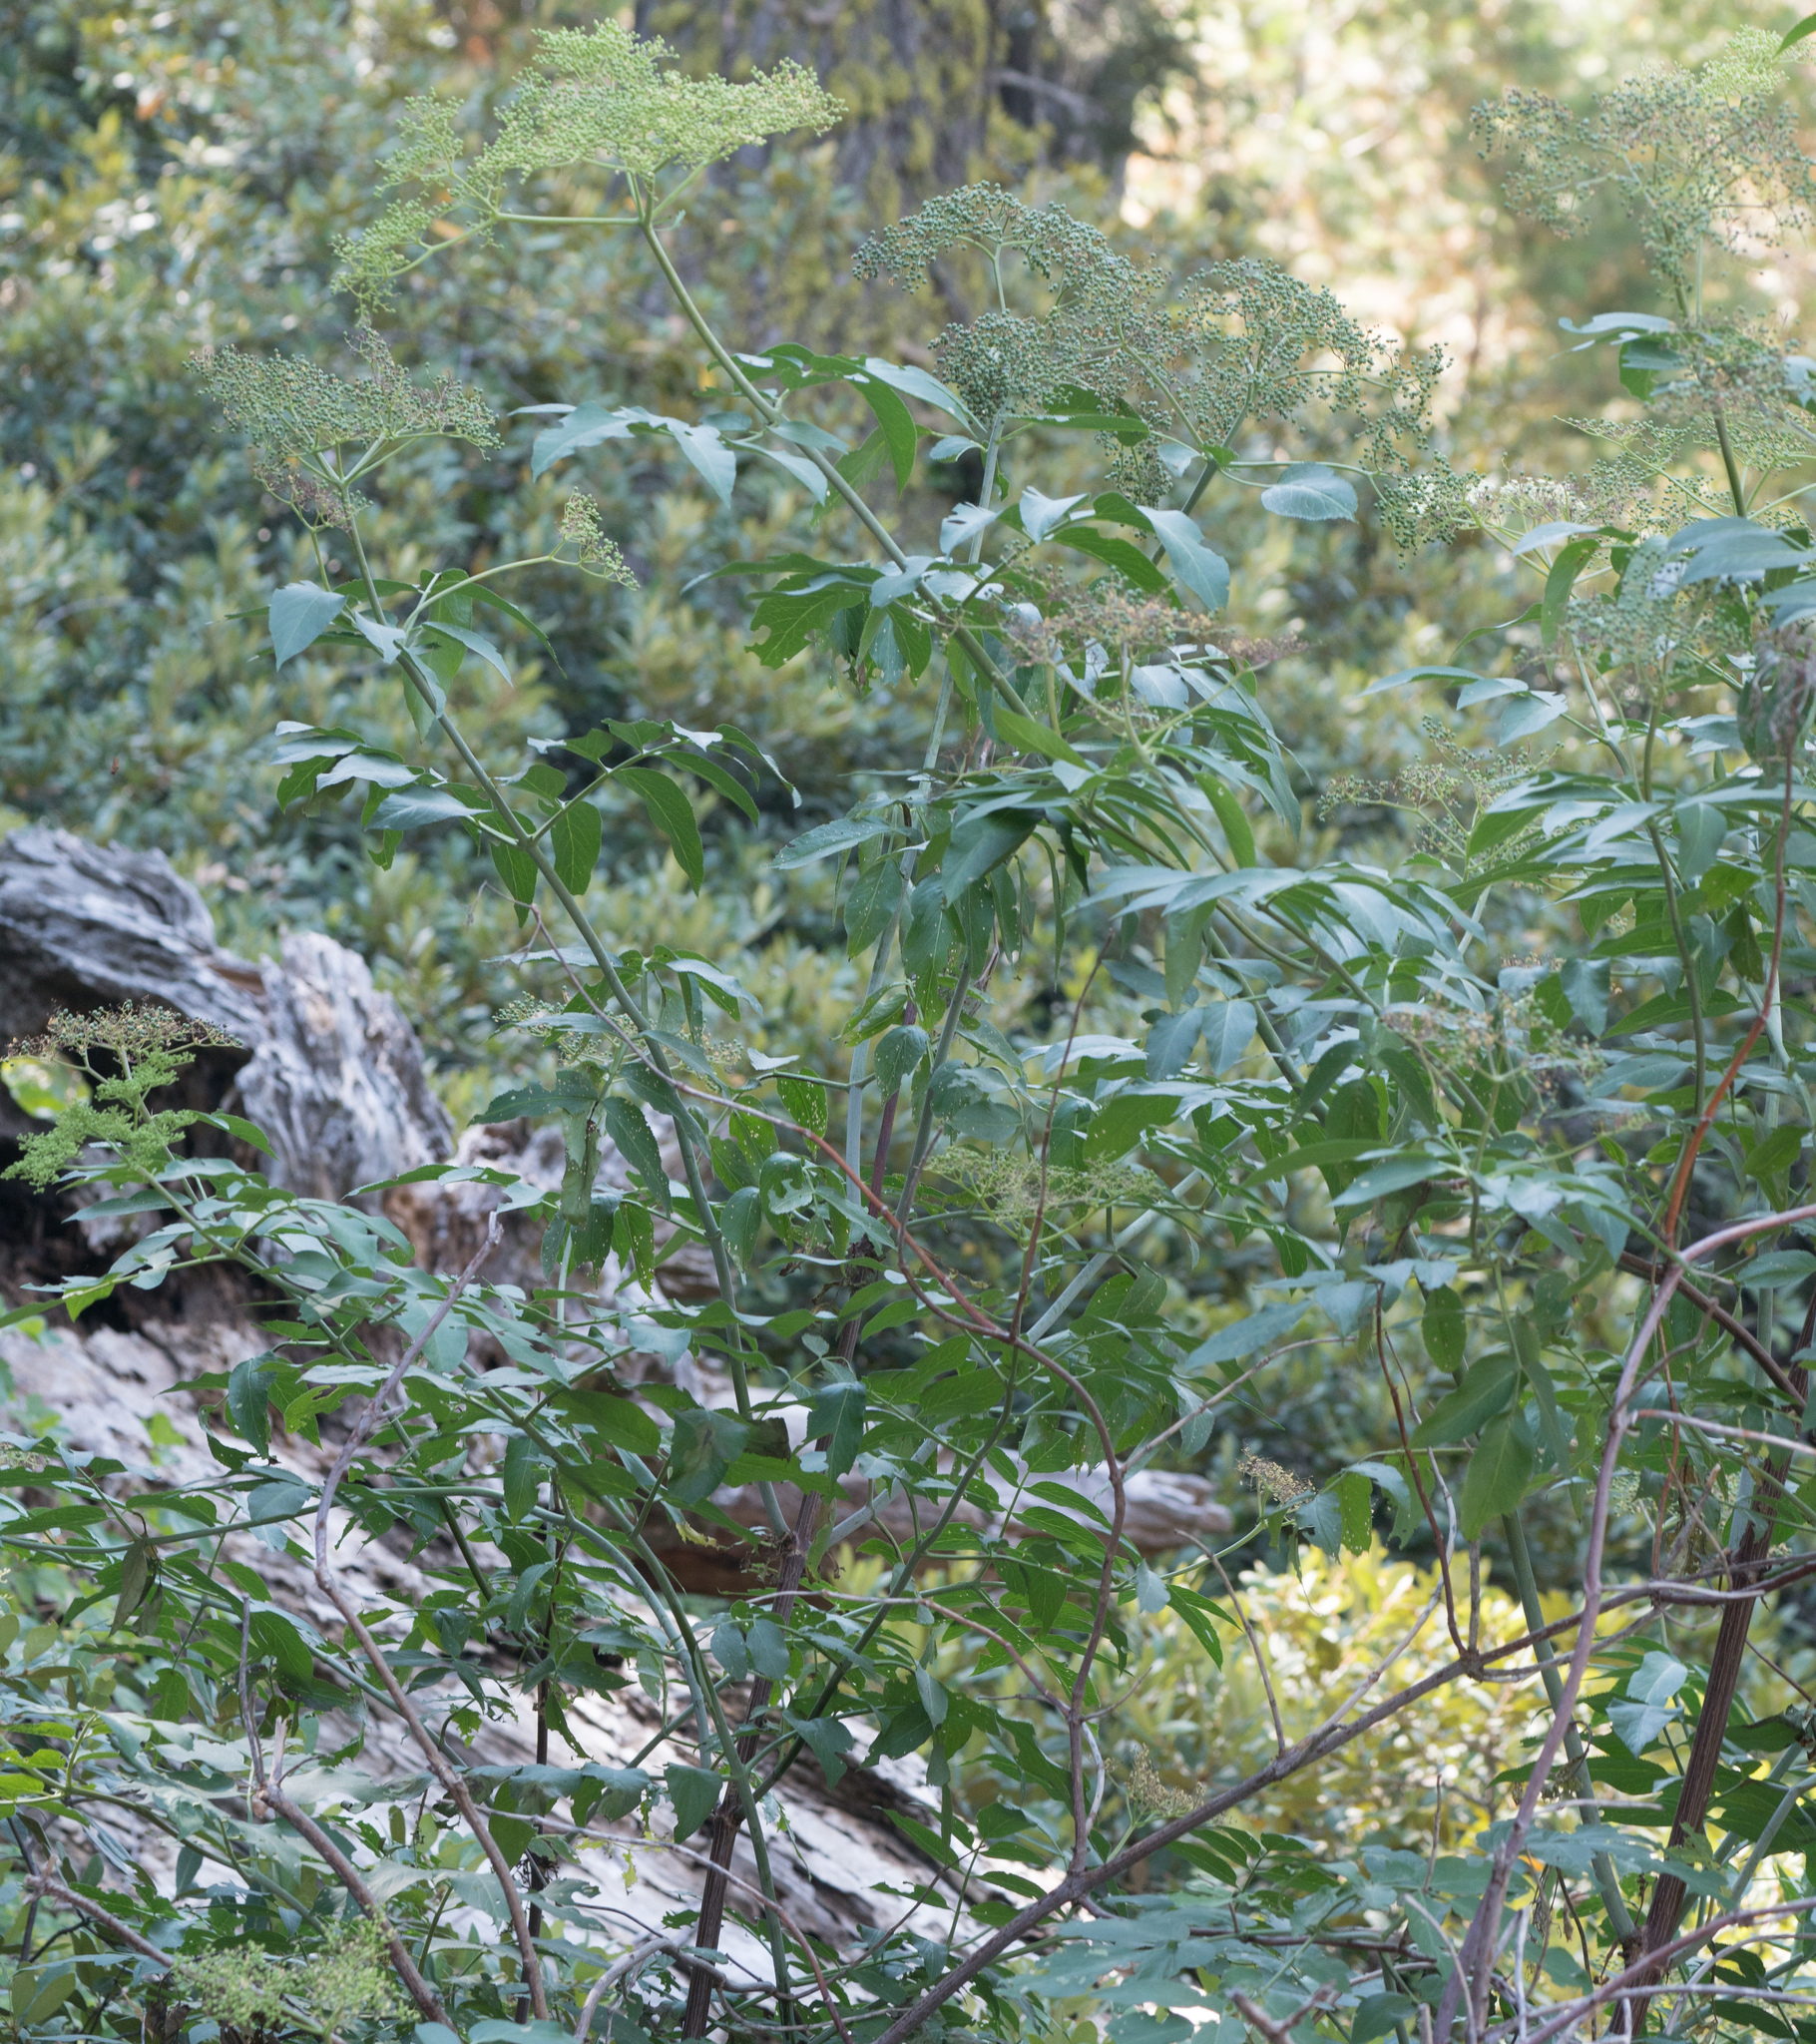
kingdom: Plantae
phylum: Tracheophyta
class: Magnoliopsida
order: Dipsacales
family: Viburnaceae
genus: Sambucus
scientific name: Sambucus cerulea
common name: Blue elder
